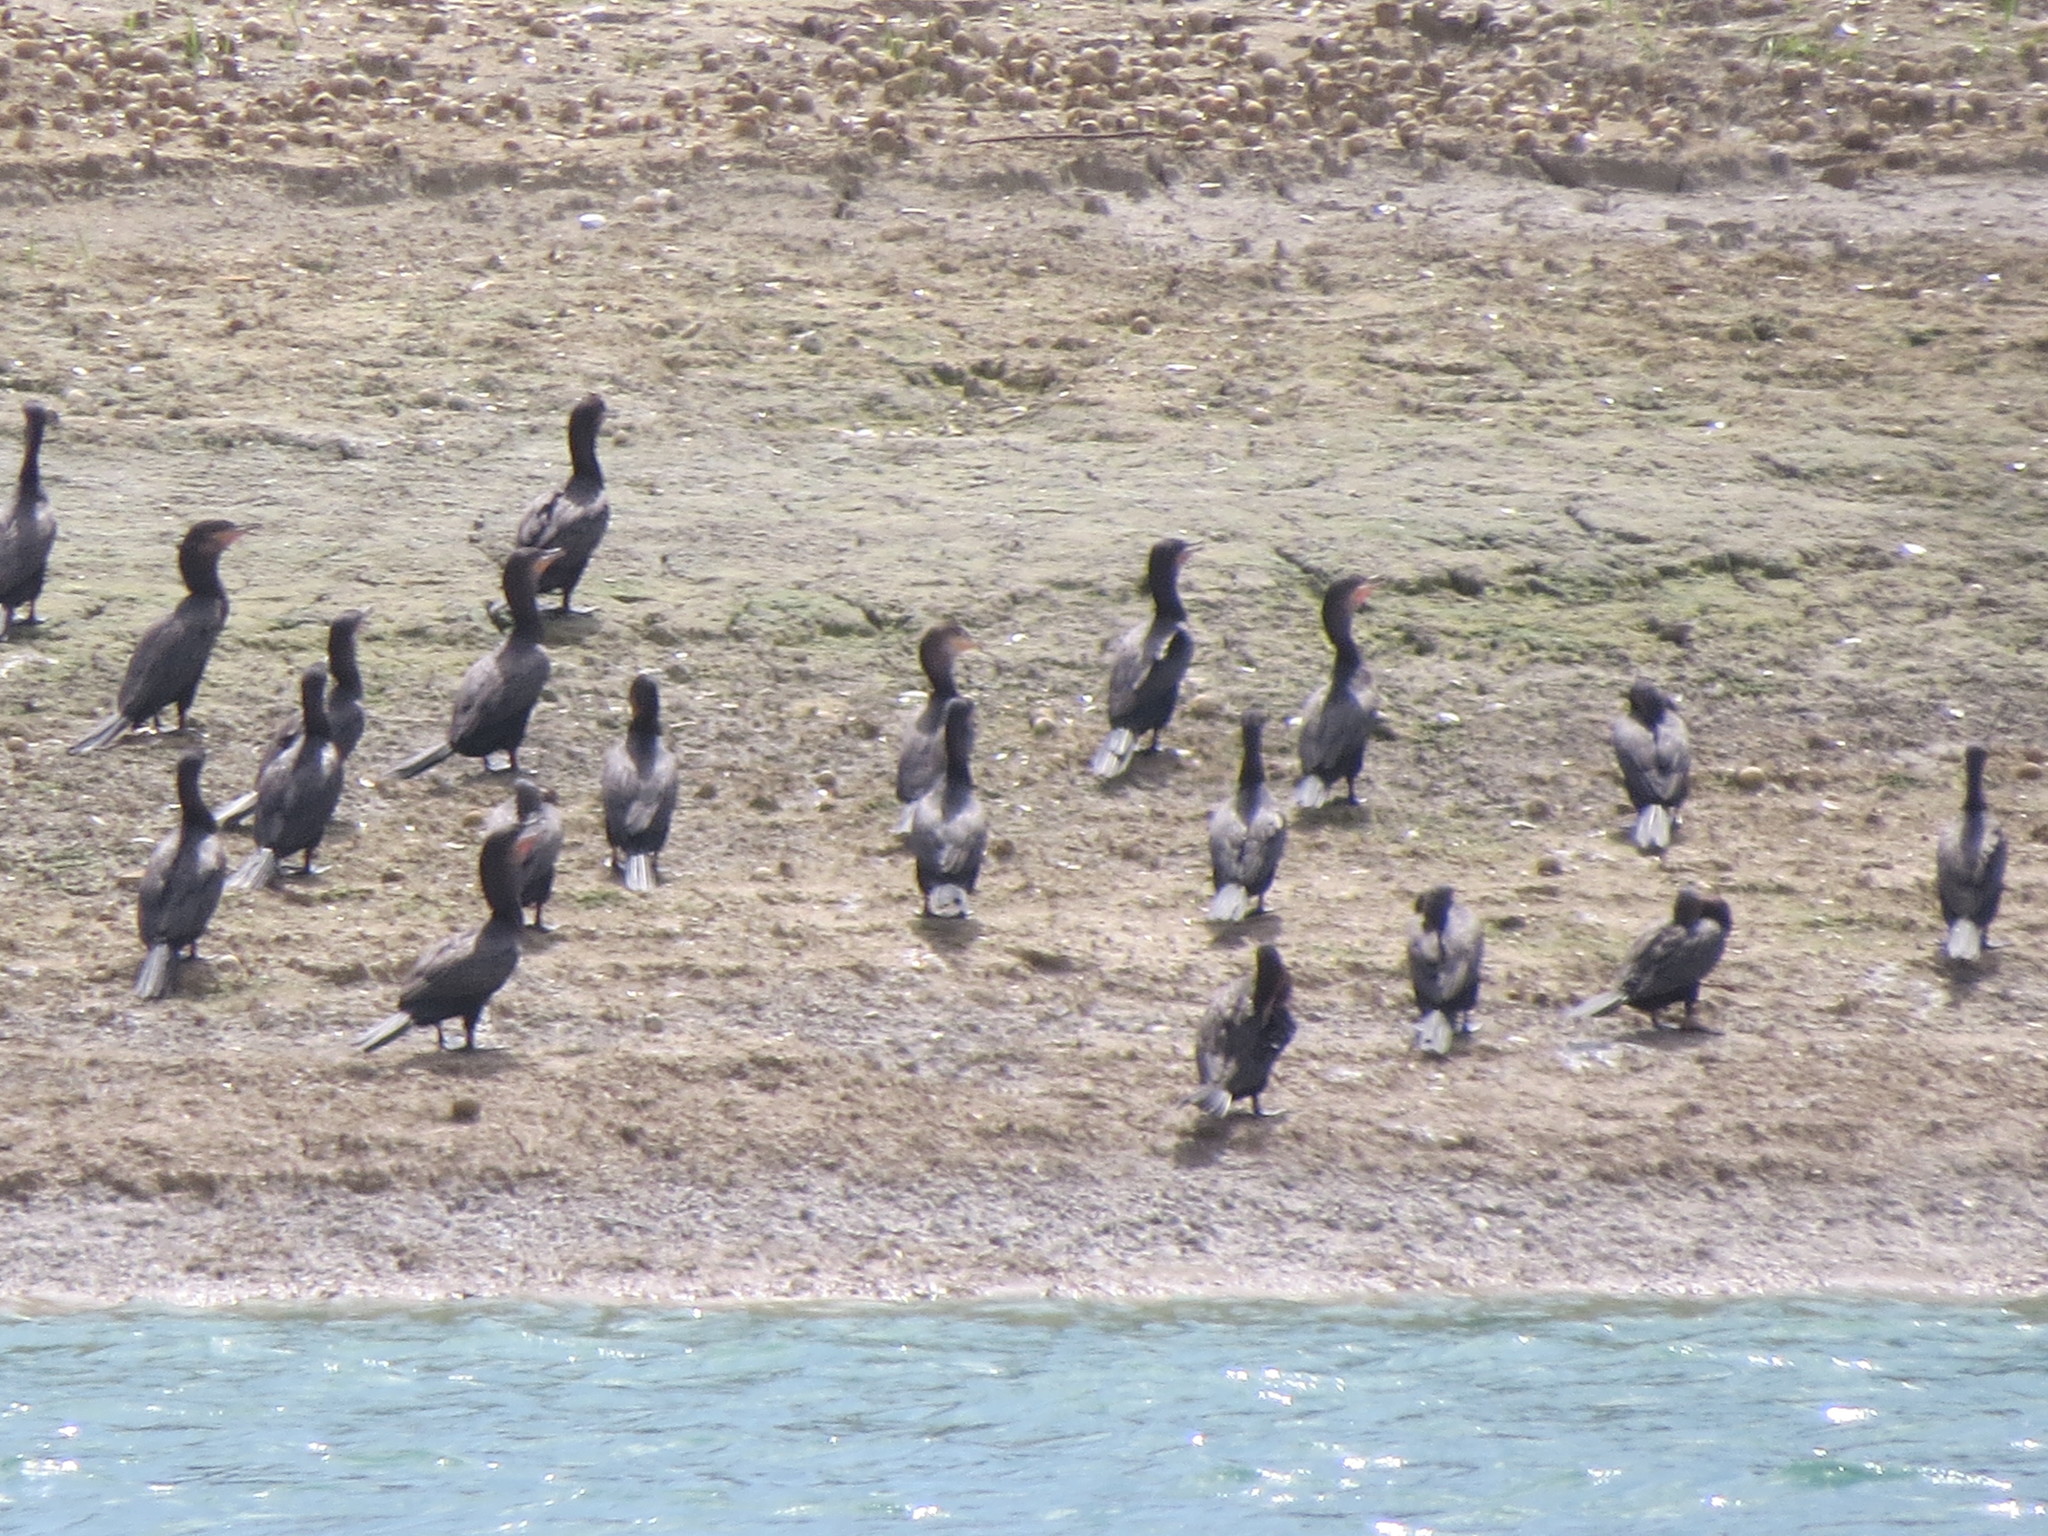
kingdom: Animalia
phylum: Chordata
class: Aves
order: Suliformes
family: Phalacrocoracidae
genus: Phalacrocorax
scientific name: Phalacrocorax brasilianus
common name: Neotropic cormorant
